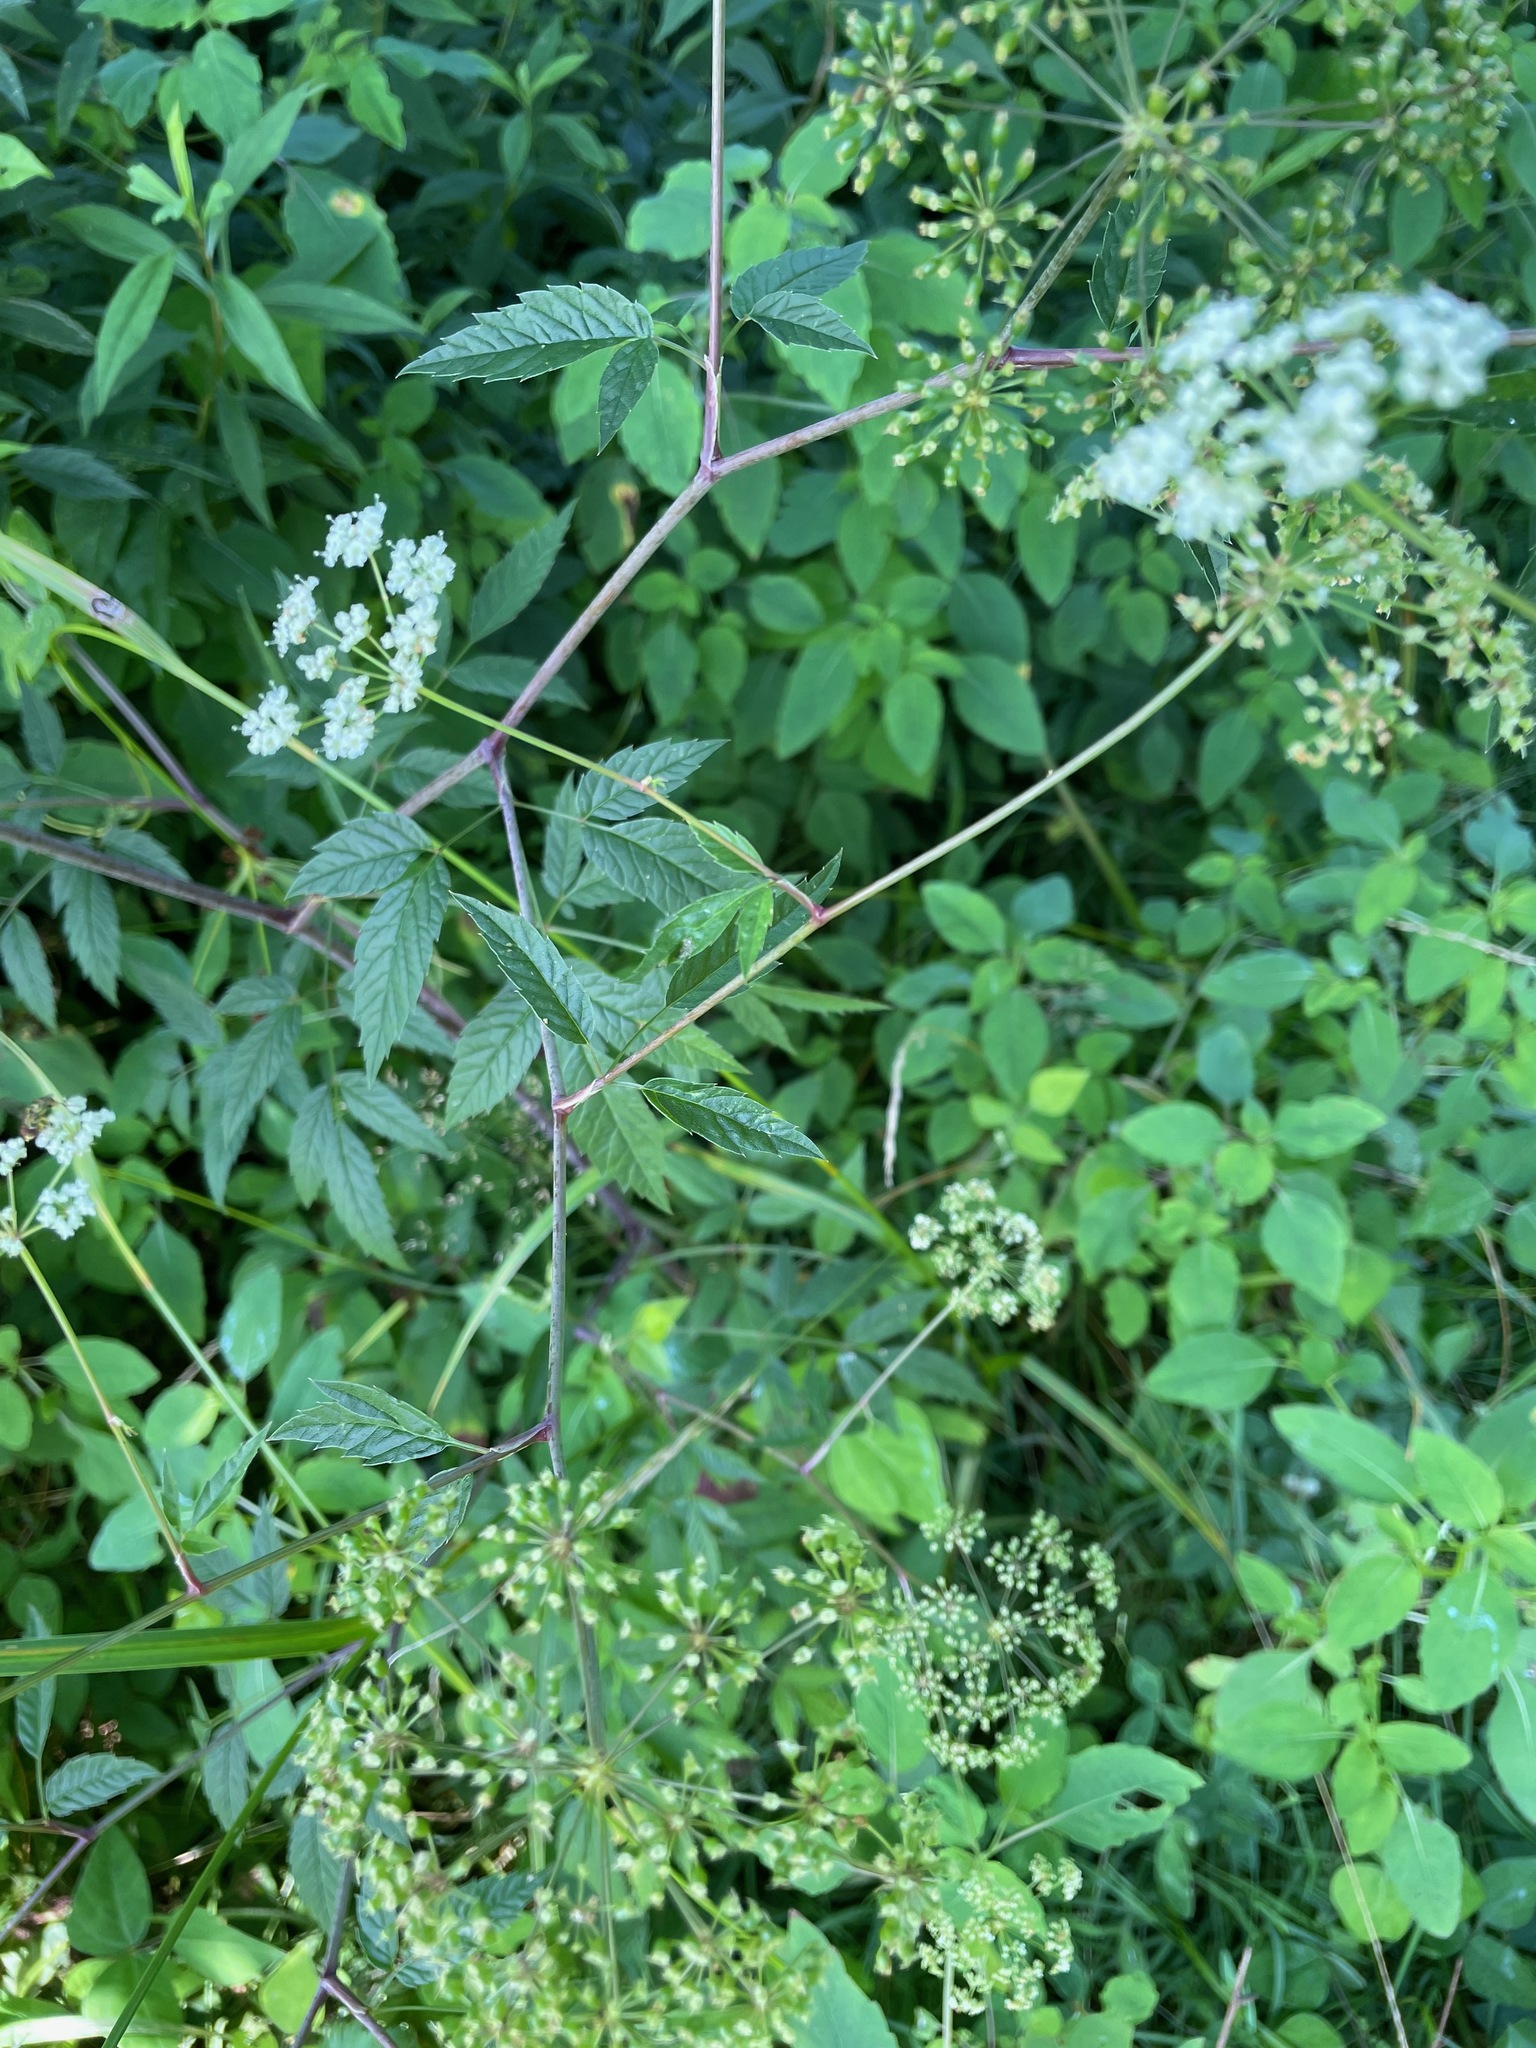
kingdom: Plantae
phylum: Tracheophyta
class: Magnoliopsida
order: Apiales
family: Apiaceae
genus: Cicuta
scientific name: Cicuta maculata
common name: Spotted cowbane
